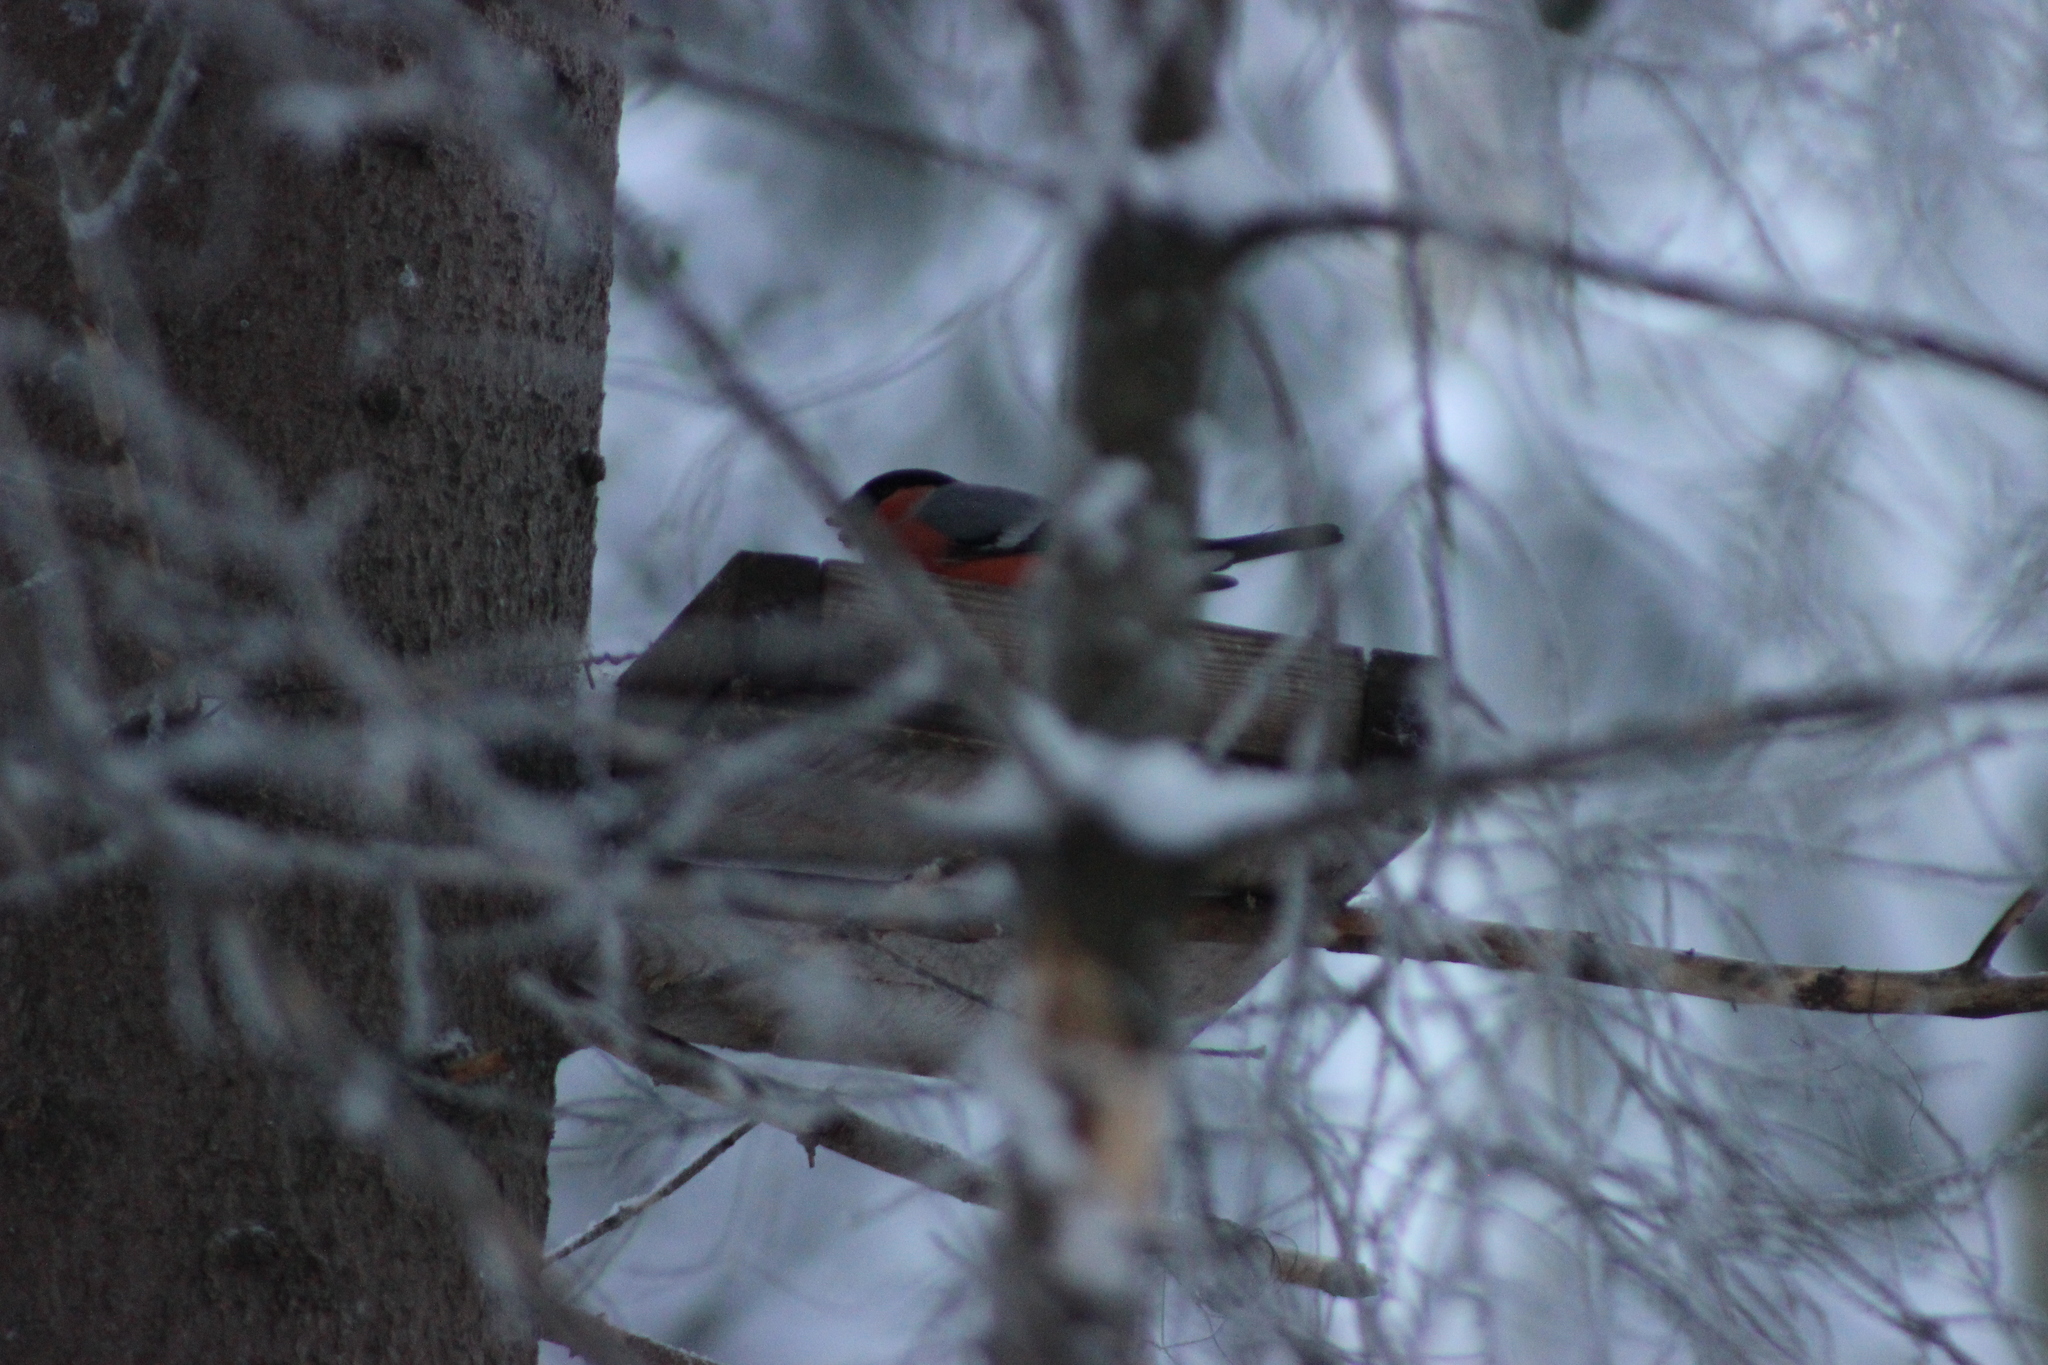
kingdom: Animalia
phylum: Chordata
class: Aves
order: Passeriformes
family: Fringillidae
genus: Pyrrhula
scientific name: Pyrrhula pyrrhula
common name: Eurasian bullfinch
